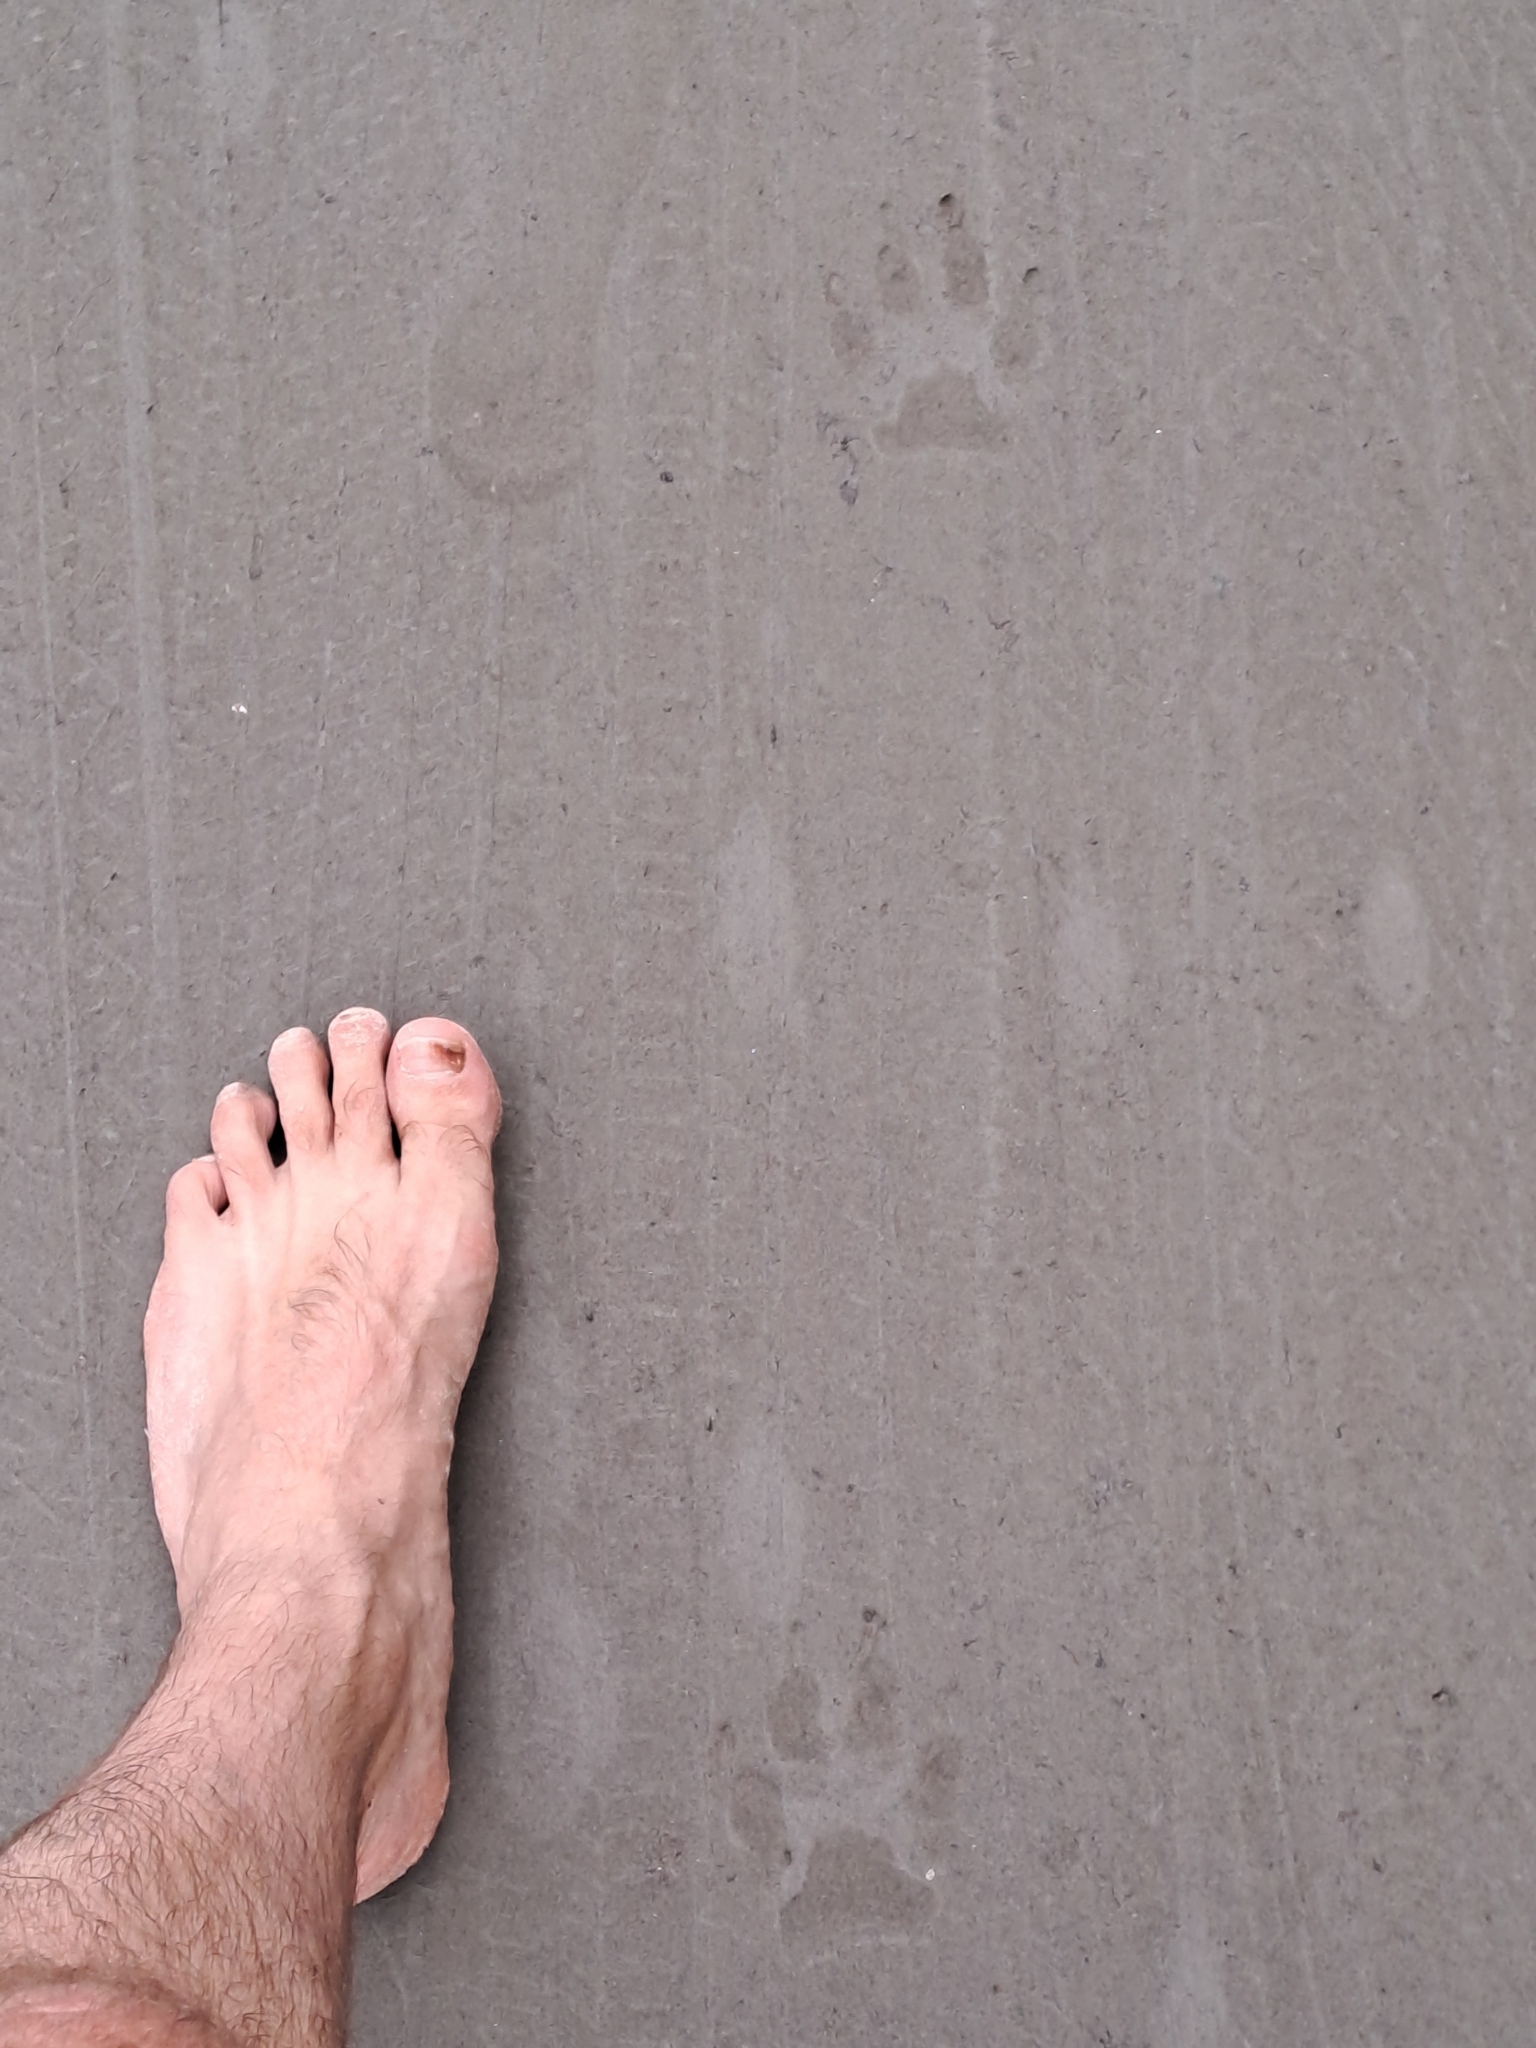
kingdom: Animalia
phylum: Chordata
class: Mammalia
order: Carnivora
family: Canidae
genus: Canis
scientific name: Canis lupus
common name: Gray wolf
